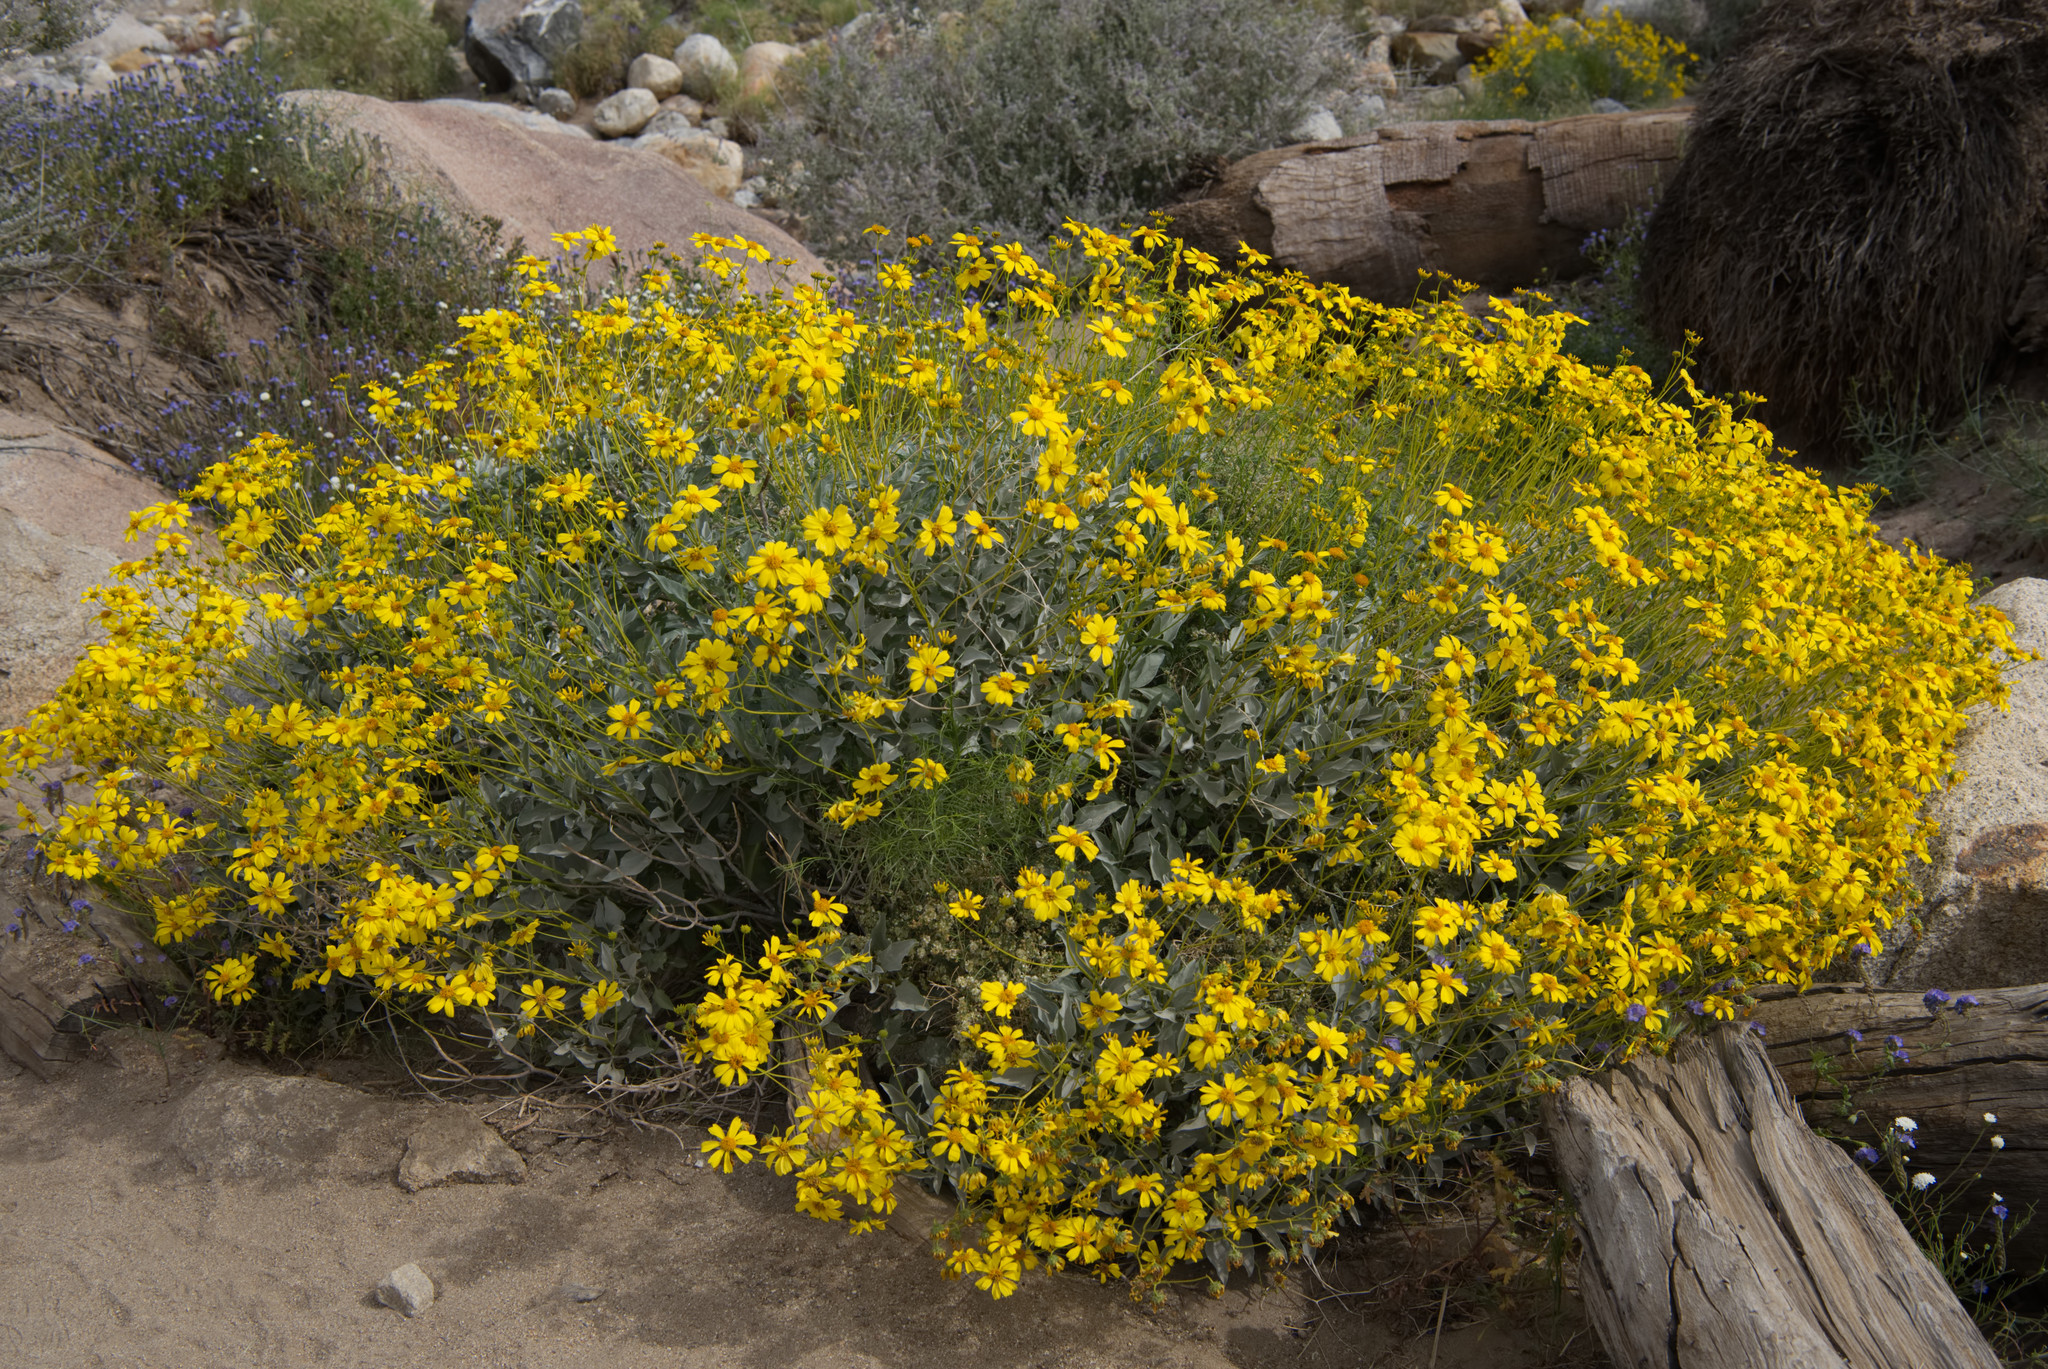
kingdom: Plantae
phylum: Tracheophyta
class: Magnoliopsida
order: Asterales
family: Asteraceae
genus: Encelia
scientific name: Encelia farinosa
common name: Brittlebush
